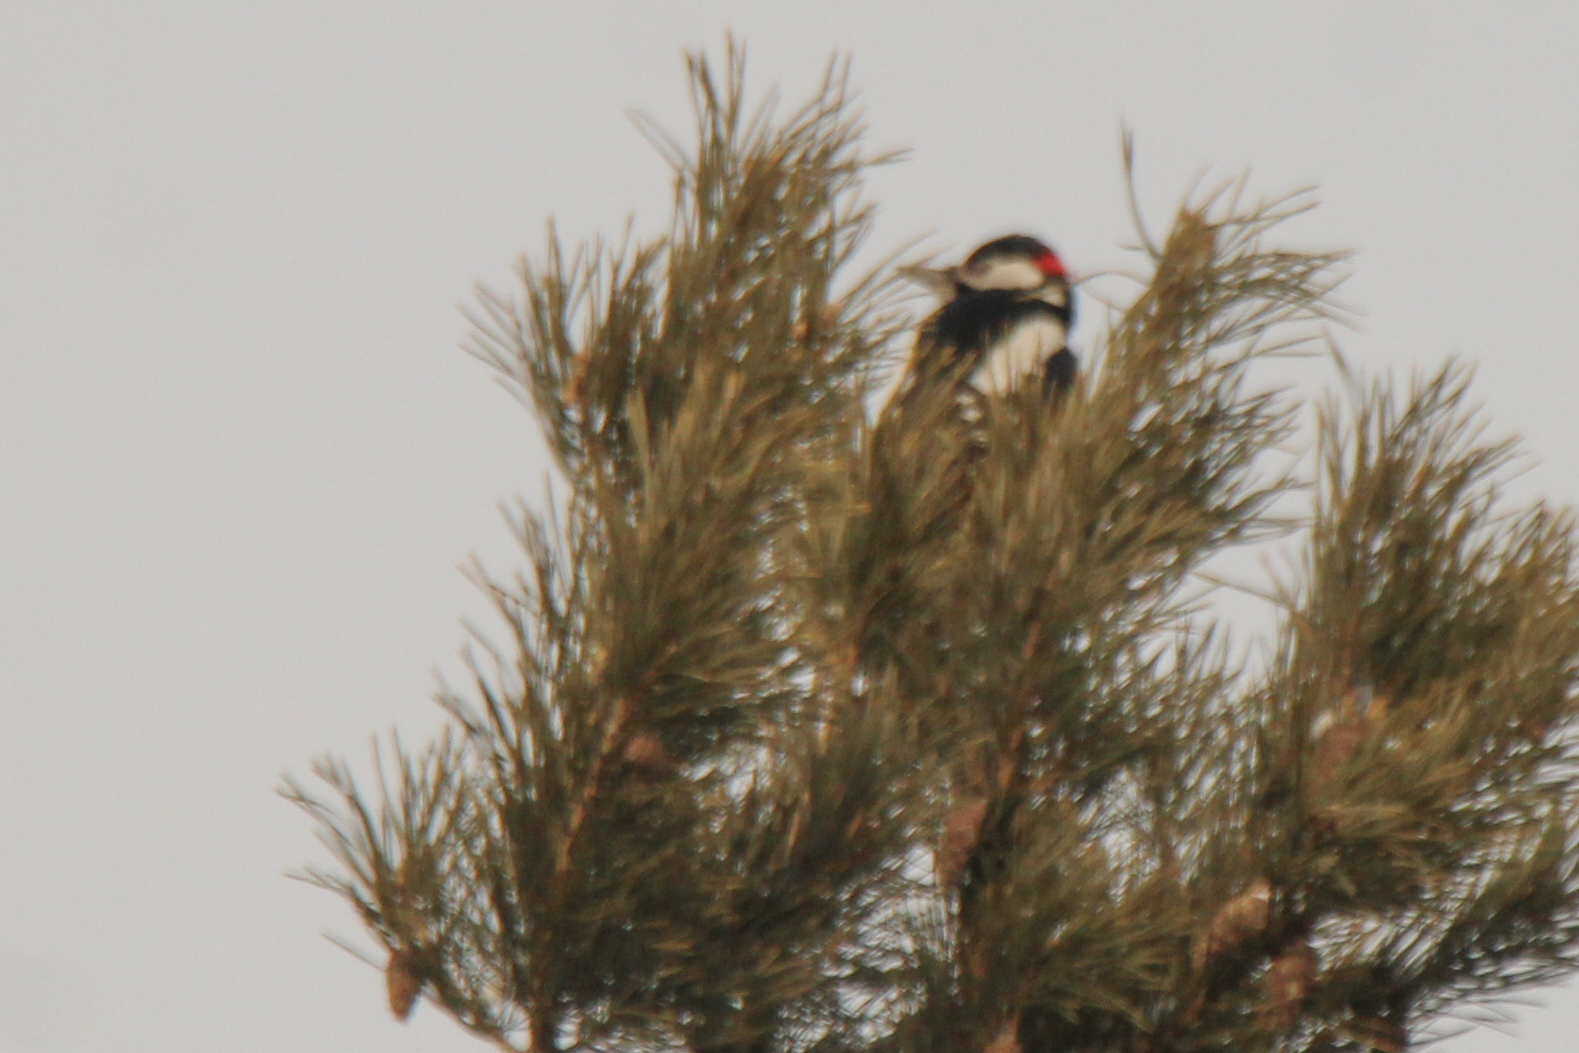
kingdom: Animalia
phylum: Chordata
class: Aves
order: Piciformes
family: Picidae
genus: Dendrocopos
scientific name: Dendrocopos major
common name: Great spotted woodpecker
